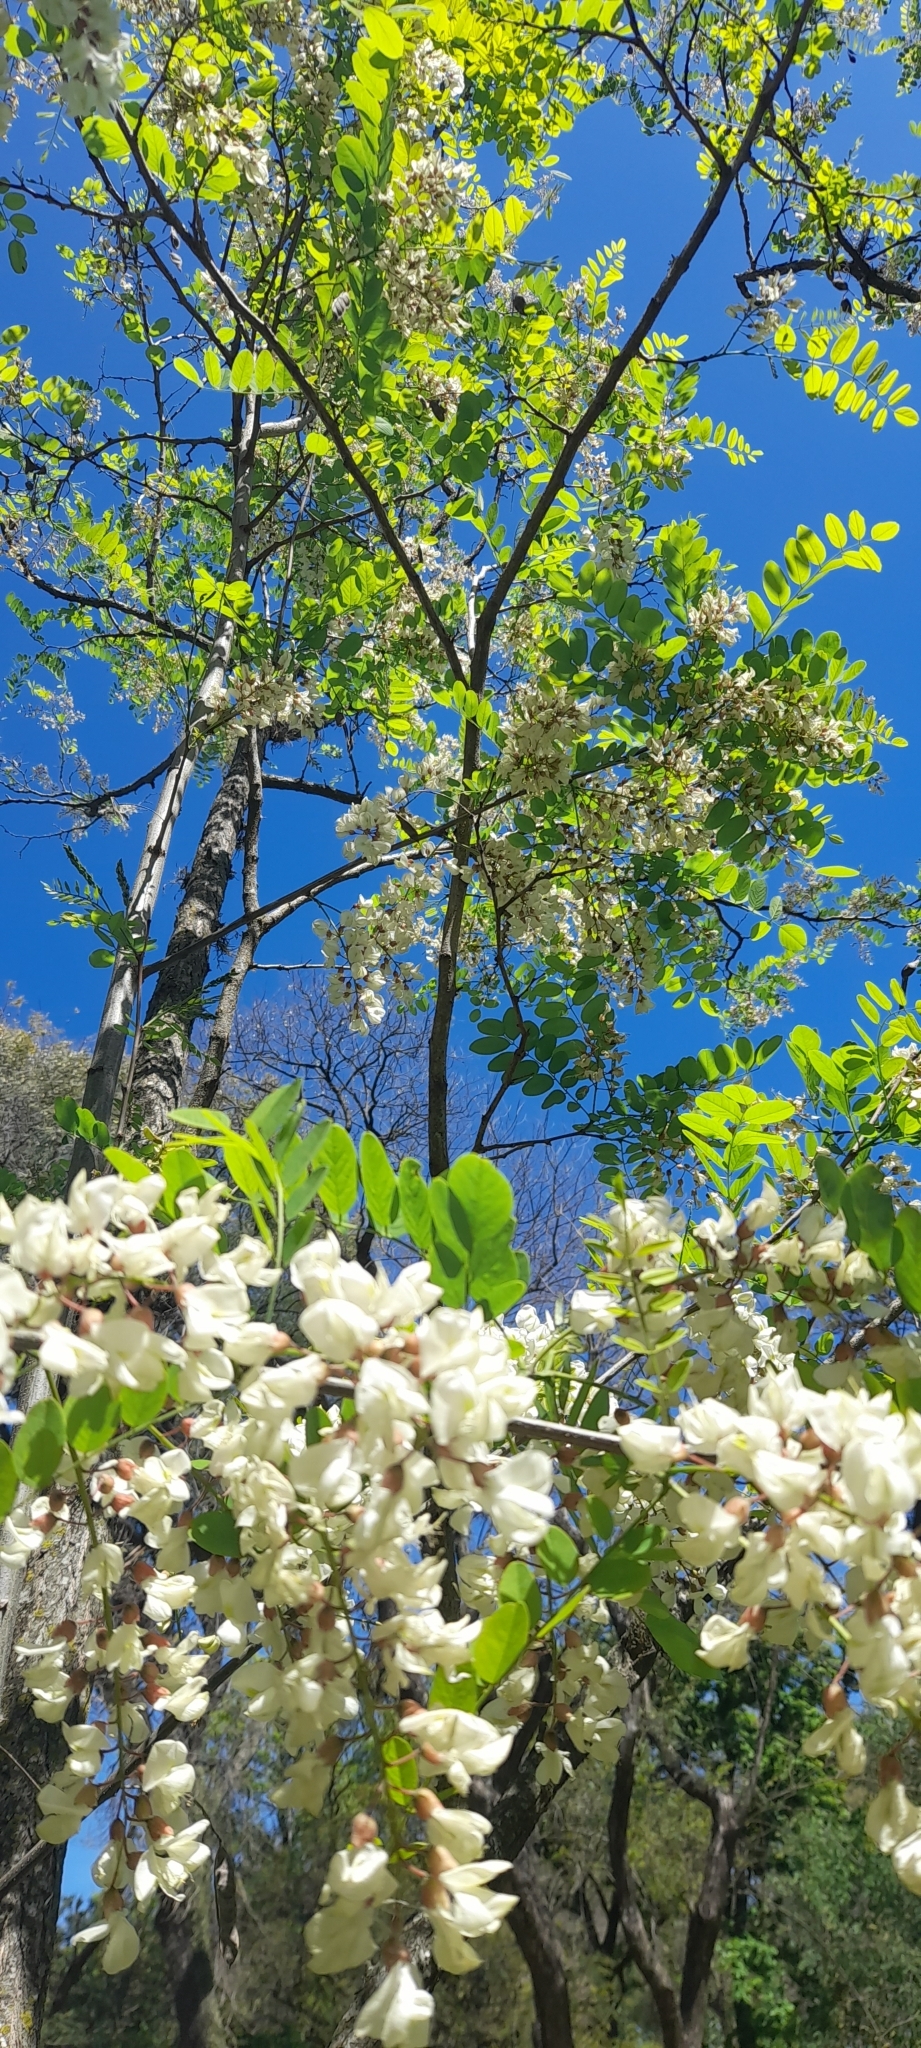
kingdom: Plantae
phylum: Tracheophyta
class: Magnoliopsida
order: Fabales
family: Fabaceae
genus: Robinia
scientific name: Robinia pseudoacacia
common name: Black locust
